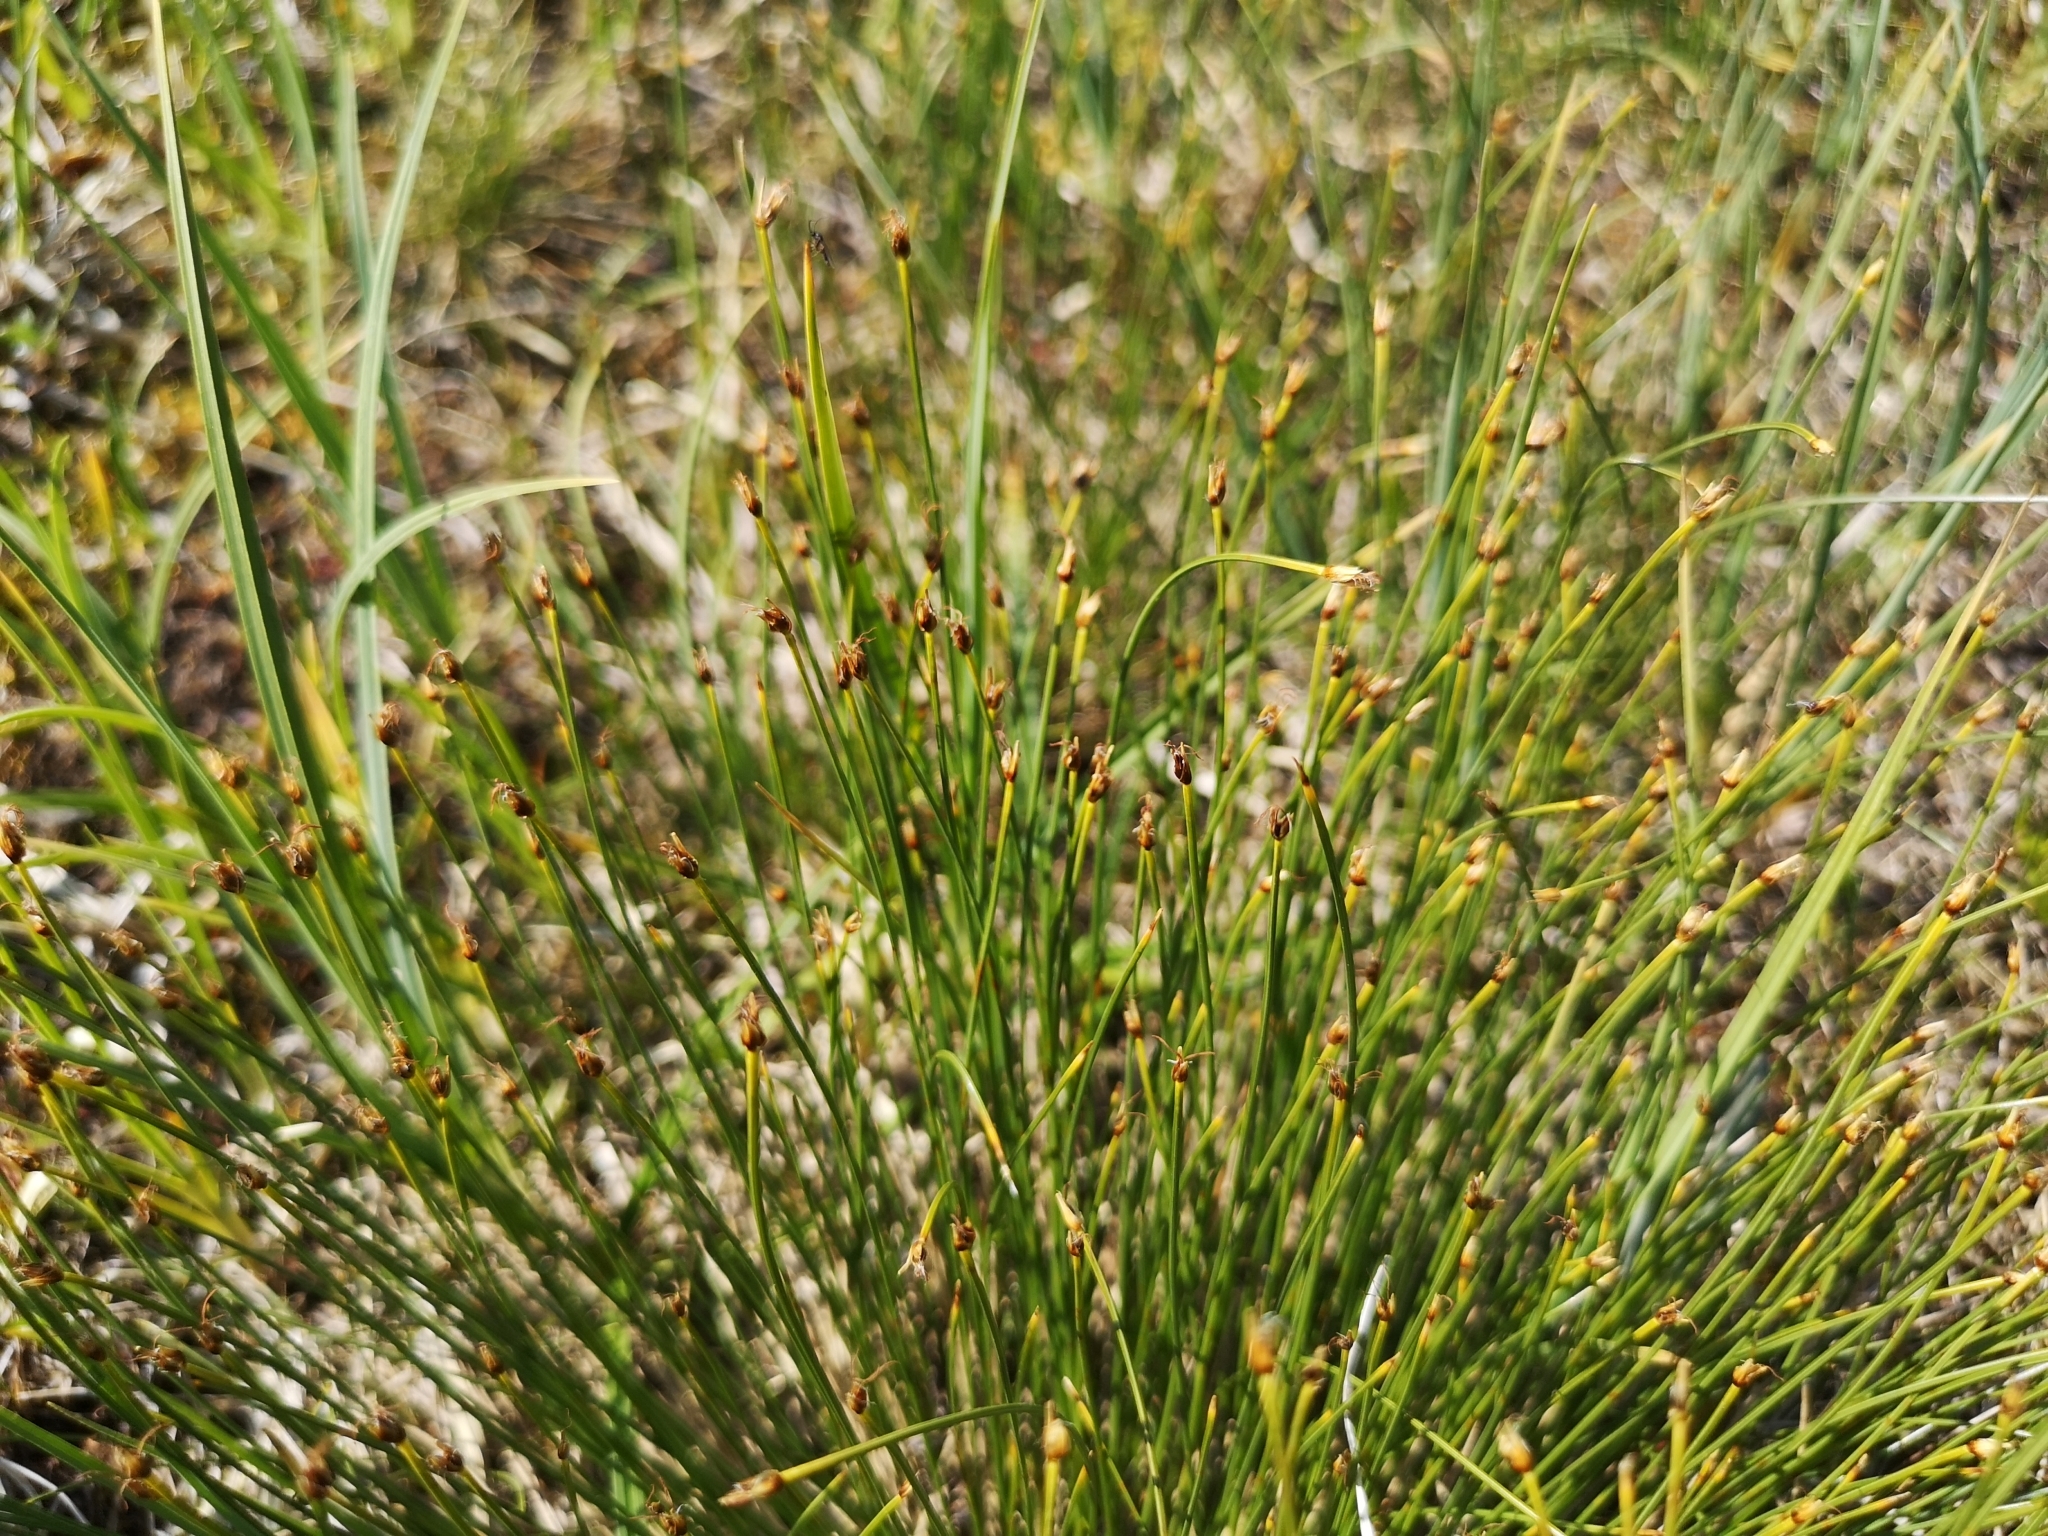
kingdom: Plantae
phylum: Tracheophyta
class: Liliopsida
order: Poales
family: Cyperaceae
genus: Trichophorum
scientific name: Trichophorum cespitosum
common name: Cespitose bulrush
